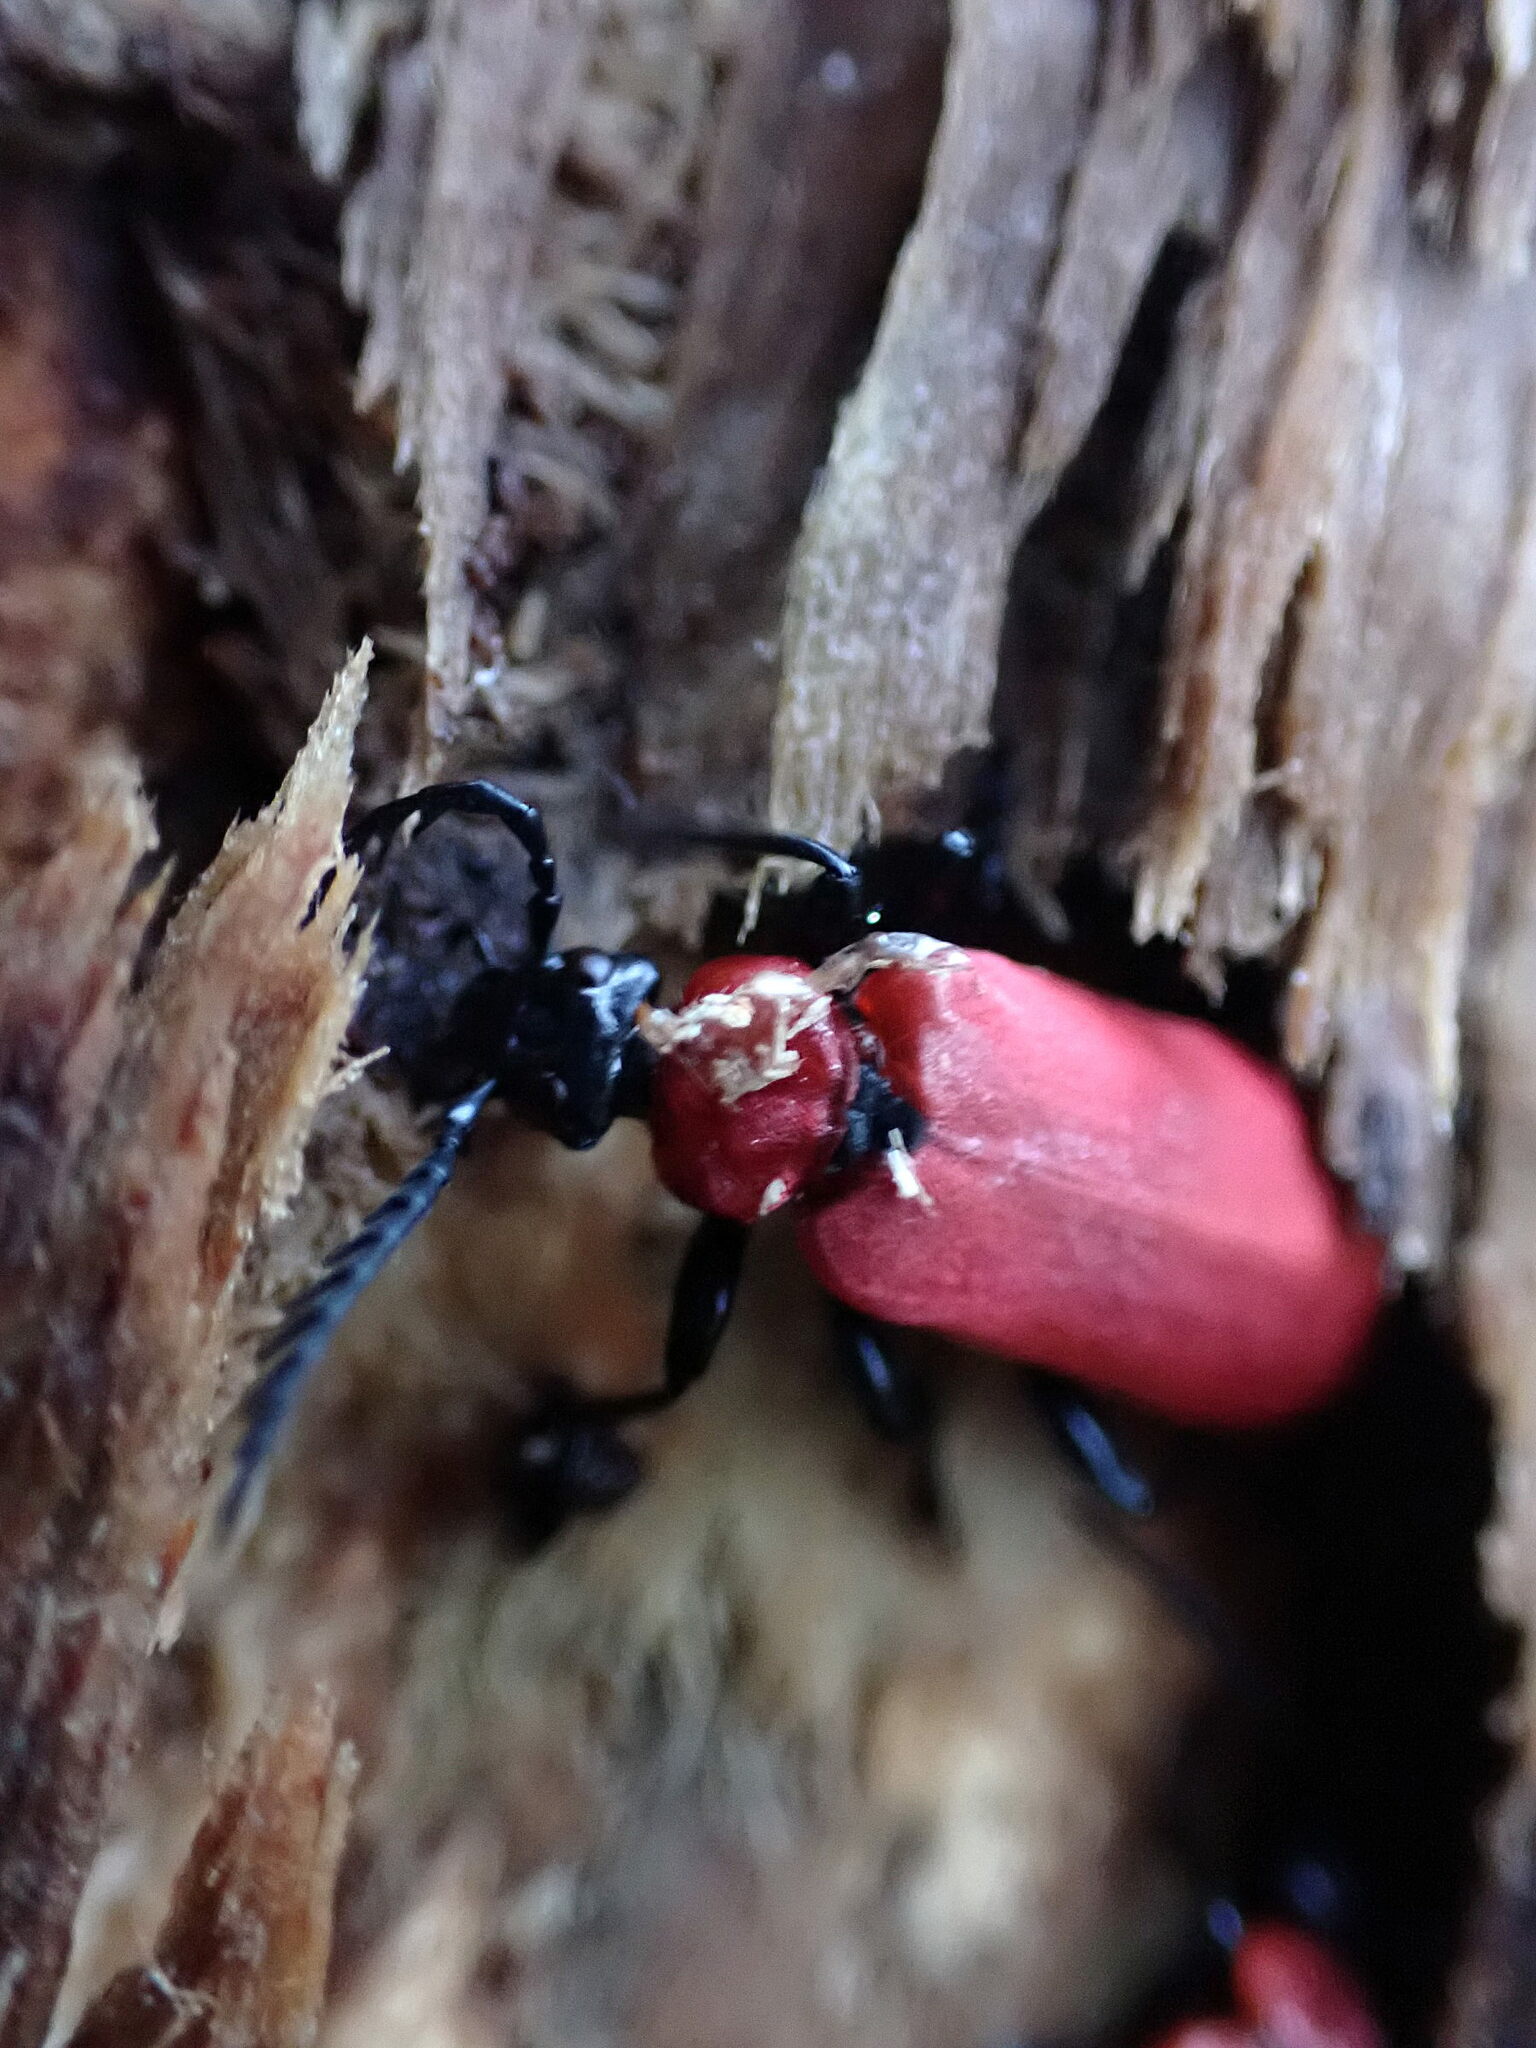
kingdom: Animalia
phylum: Arthropoda
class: Insecta
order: Coleoptera
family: Pyrochroidae
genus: Pyrochroa
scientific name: Pyrochroa coccinea
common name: Black-headed cardinal beetle
